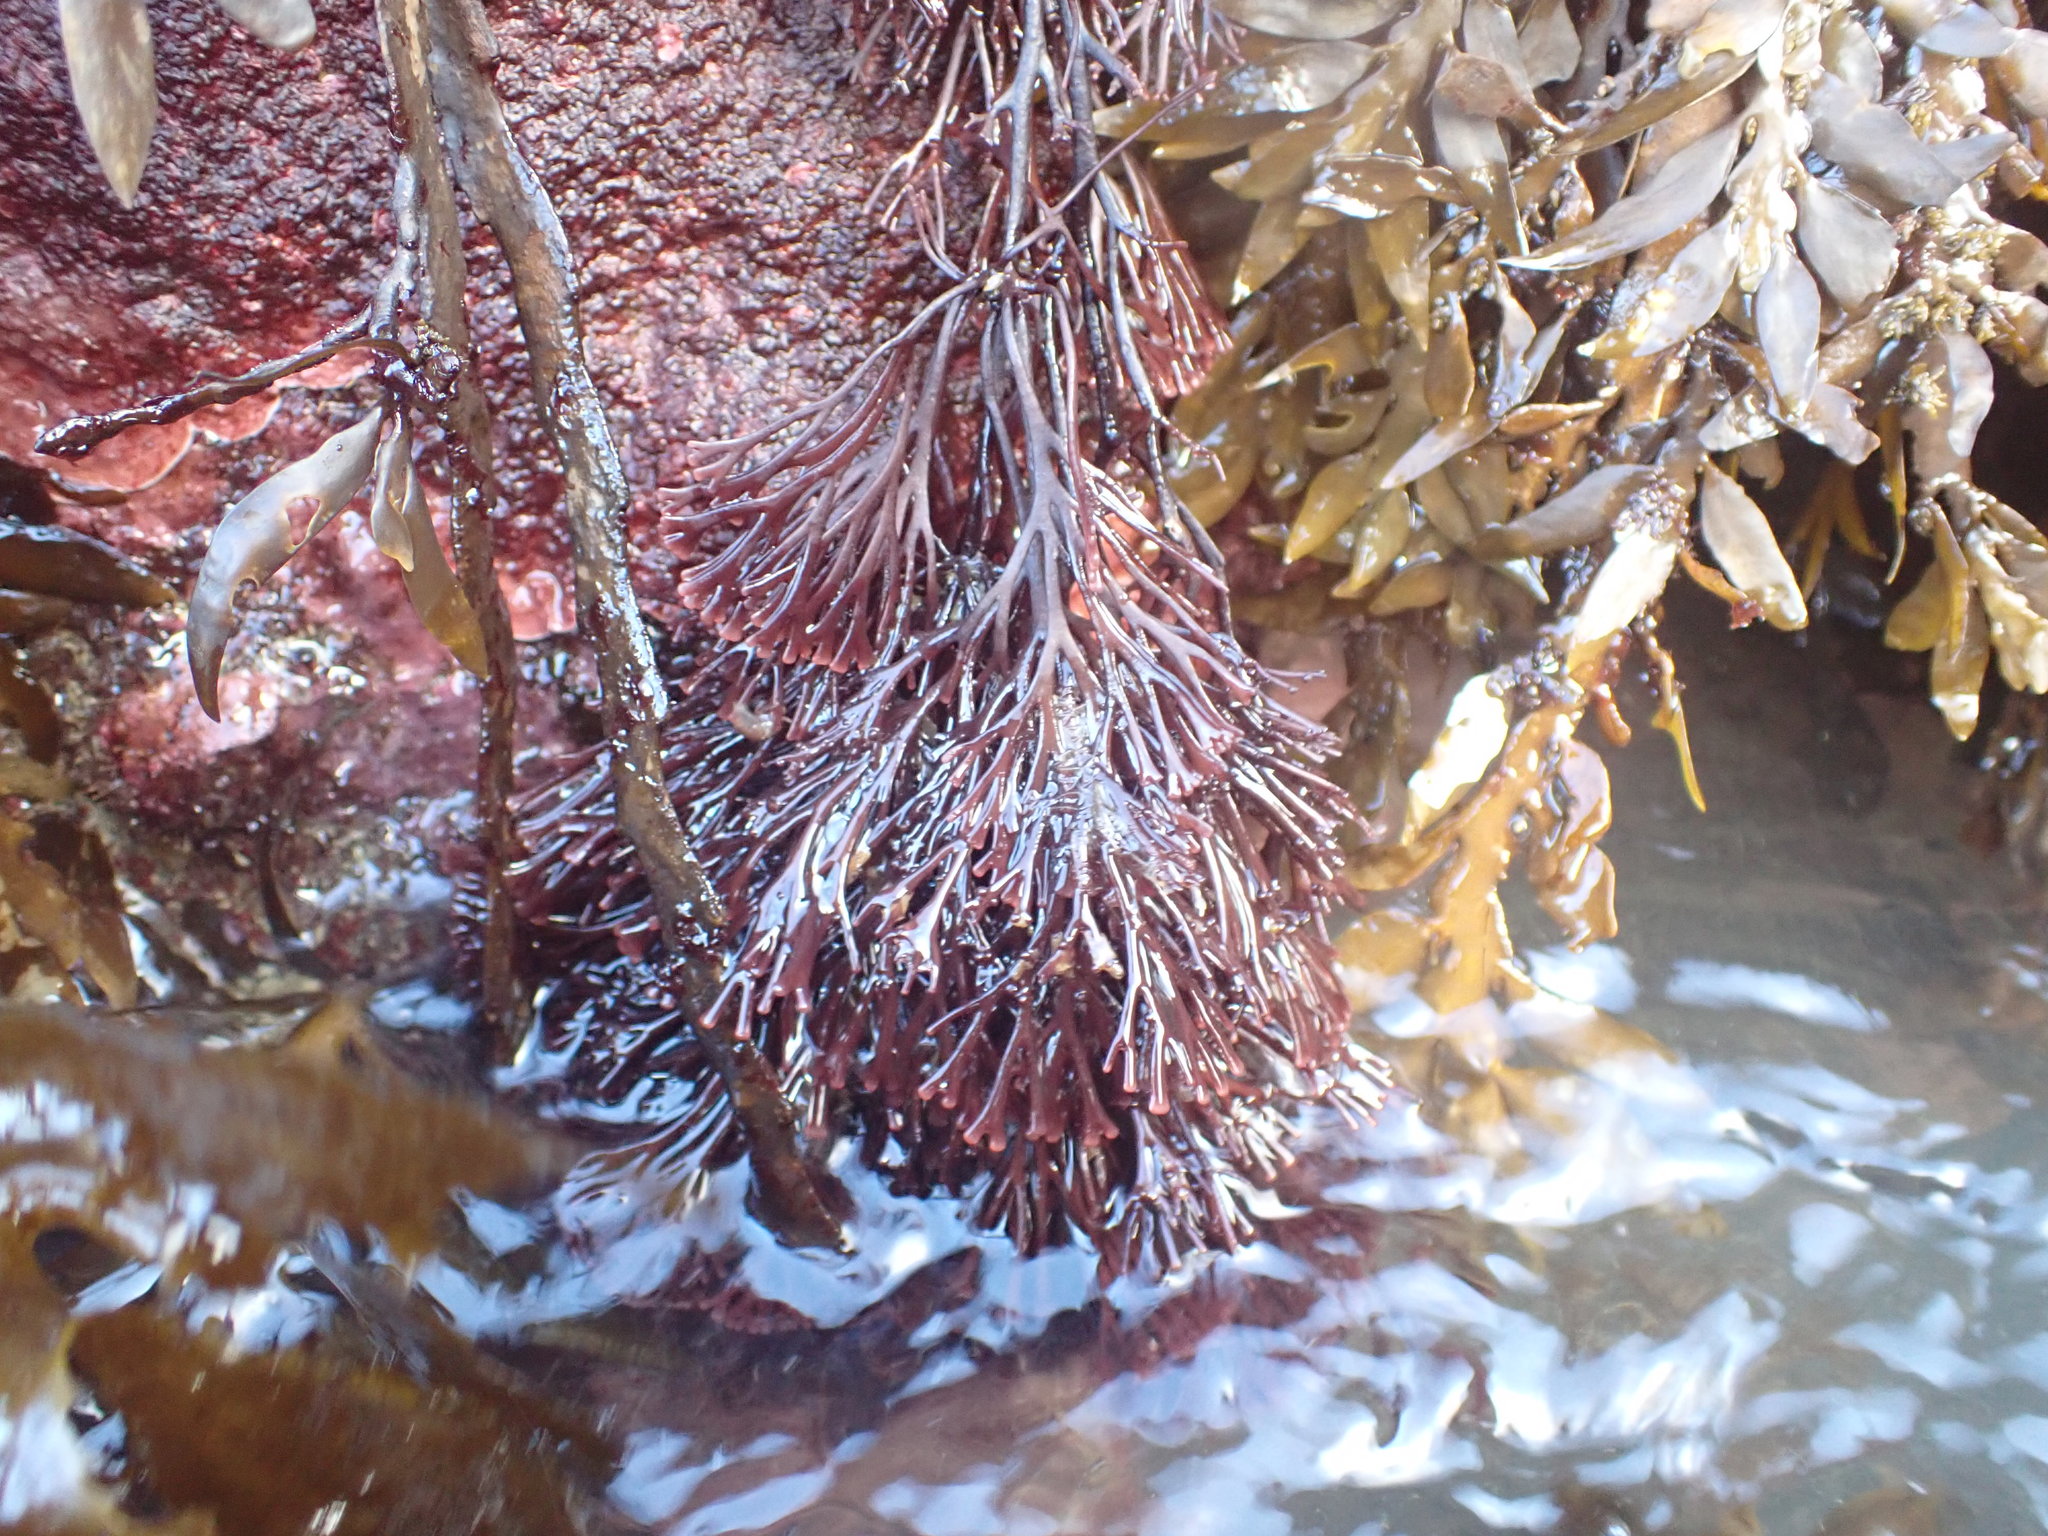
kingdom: Plantae
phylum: Rhodophyta
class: Florideophyceae
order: Gracilariales
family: Gracilariaceae
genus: Melanthalia
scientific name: Melanthalia abscissa
